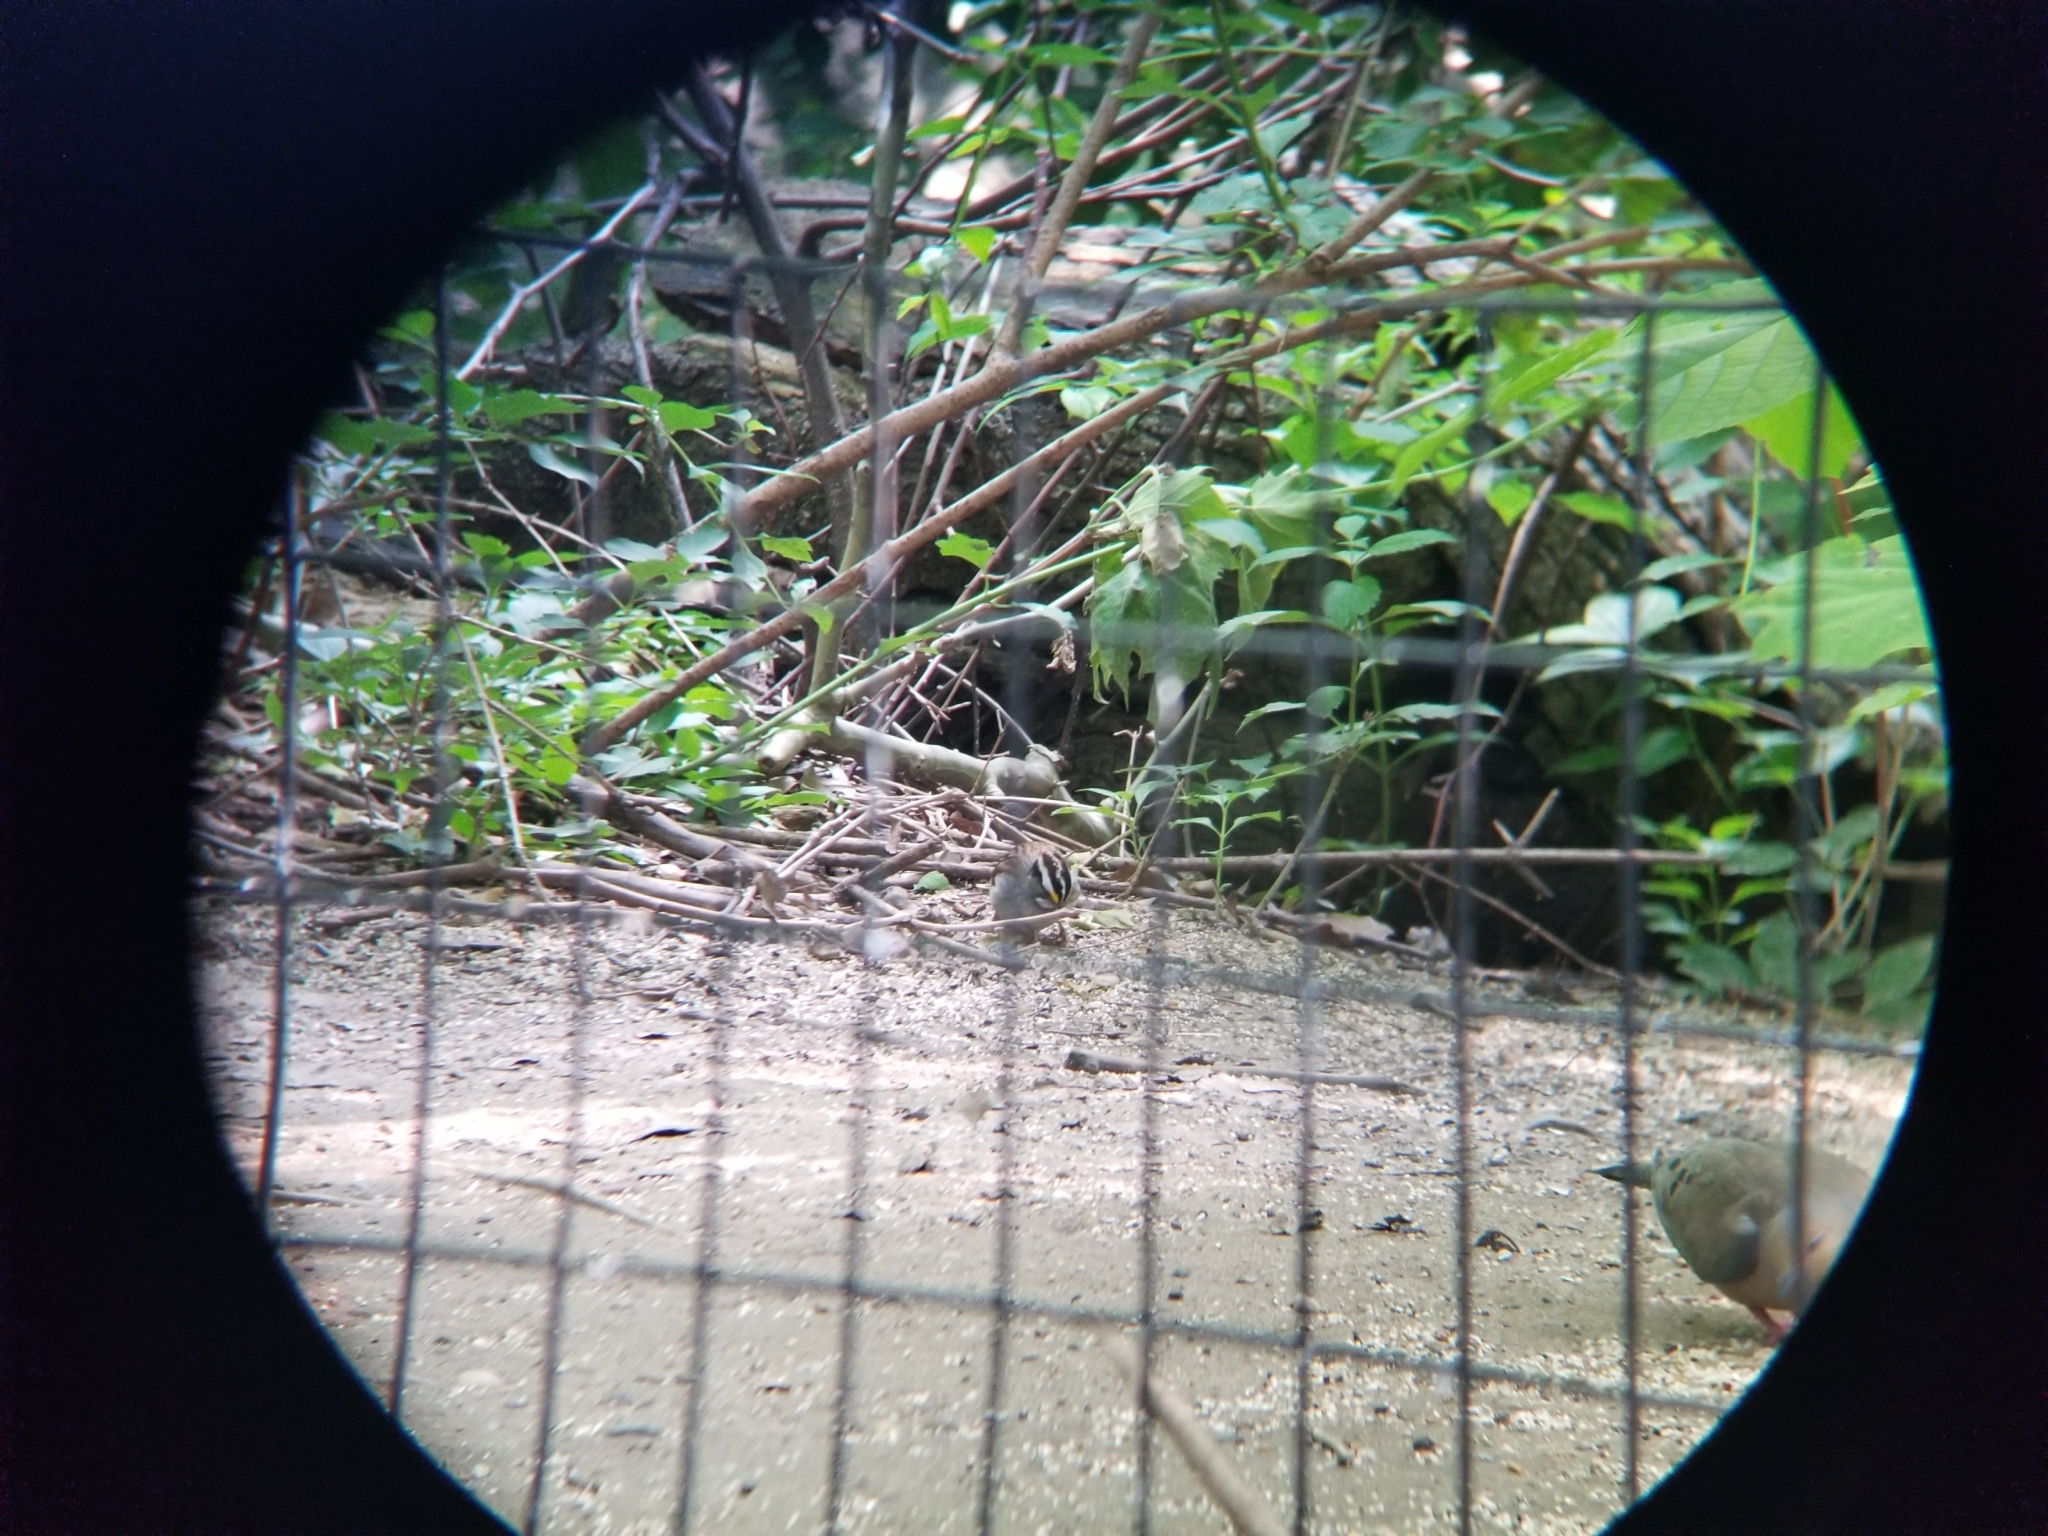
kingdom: Animalia
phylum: Chordata
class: Aves
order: Passeriformes
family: Passerellidae
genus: Zonotrichia
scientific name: Zonotrichia albicollis
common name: White-throated sparrow
